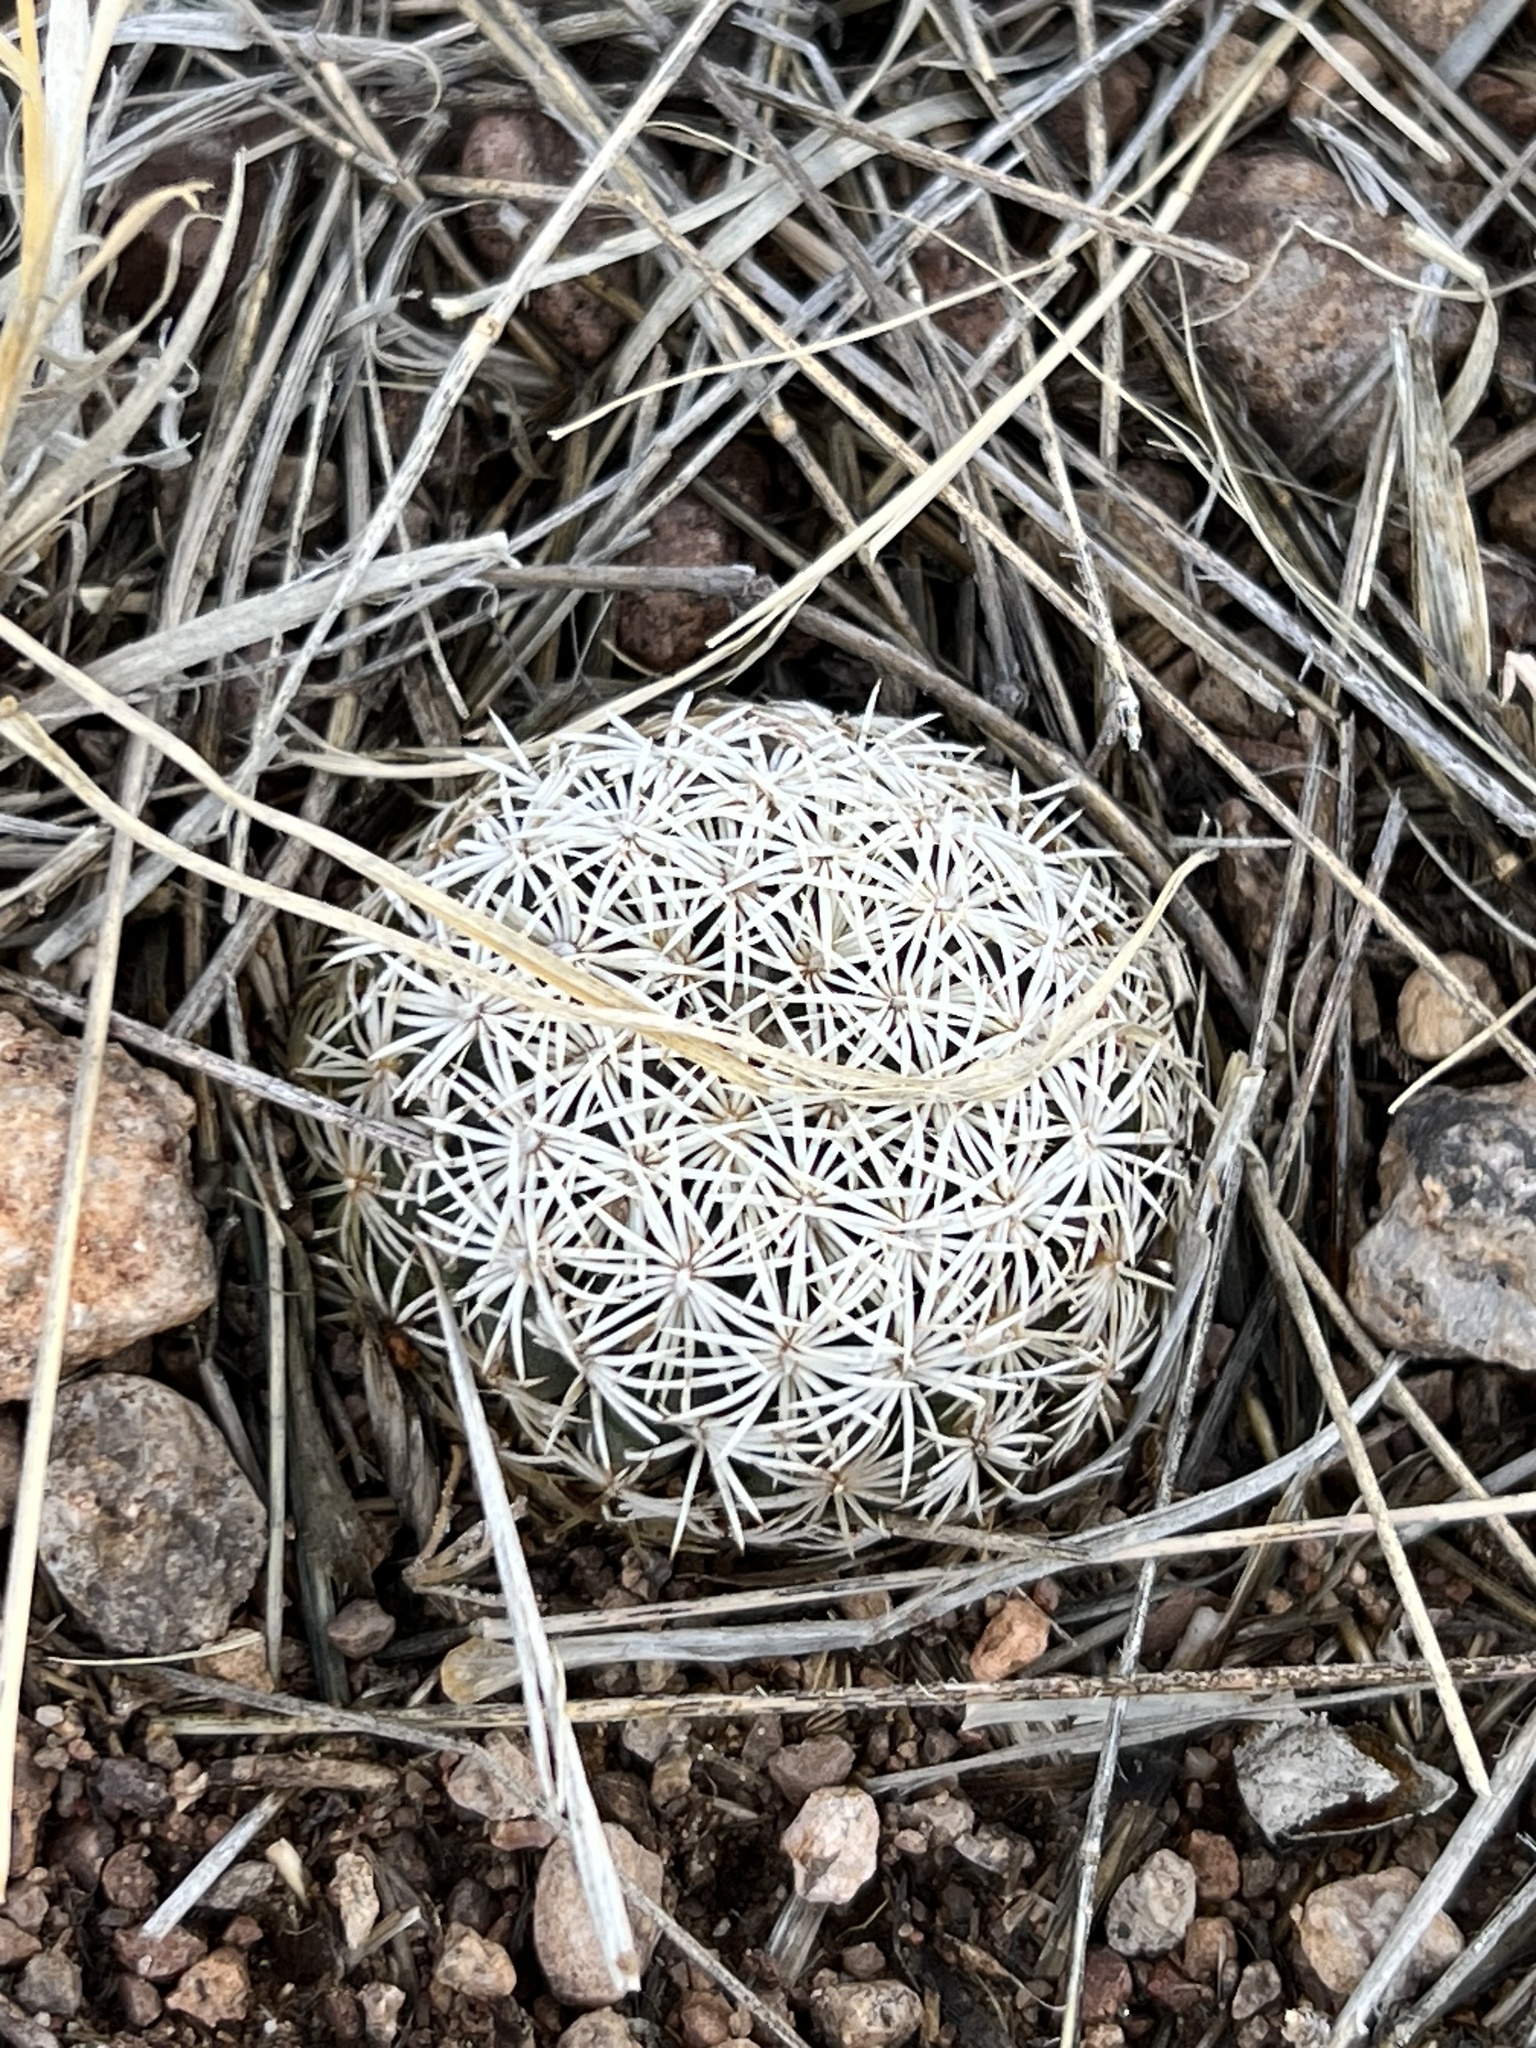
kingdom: Plantae
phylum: Tracheophyta
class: Magnoliopsida
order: Caryophyllales
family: Cactaceae
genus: Sclerocactus
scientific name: Sclerocactus johnsonii
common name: Eight-spine fishhook cactus
